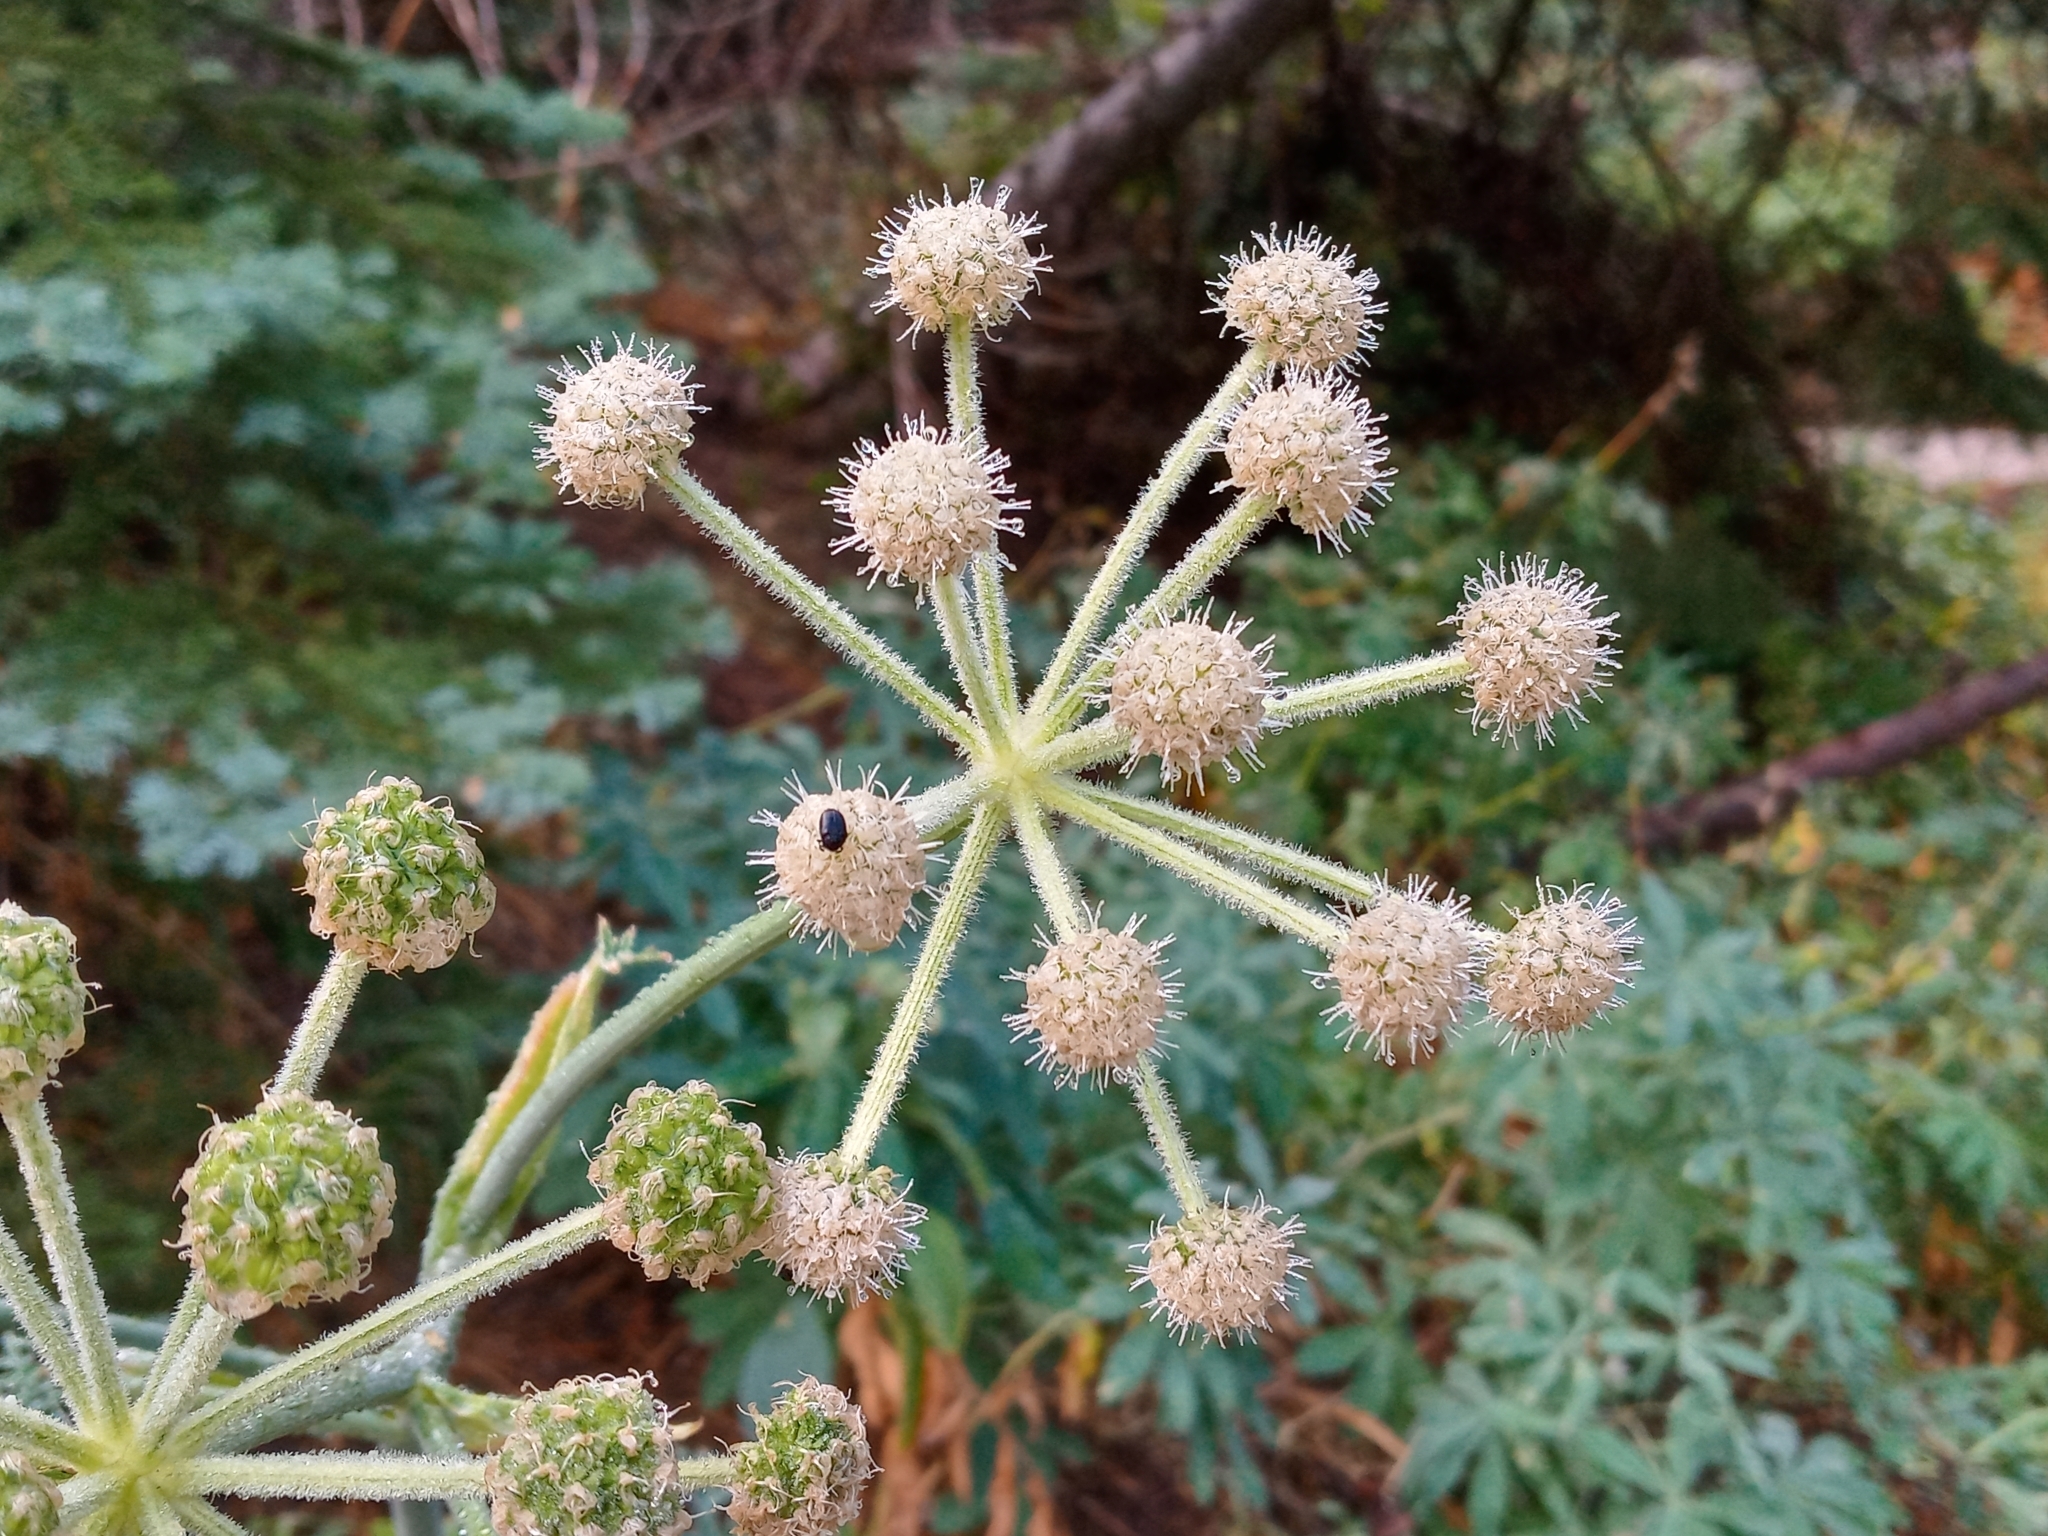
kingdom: Plantae
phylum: Tracheophyta
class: Magnoliopsida
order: Apiales
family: Apiaceae
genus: Angelica
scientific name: Angelica capitellata
